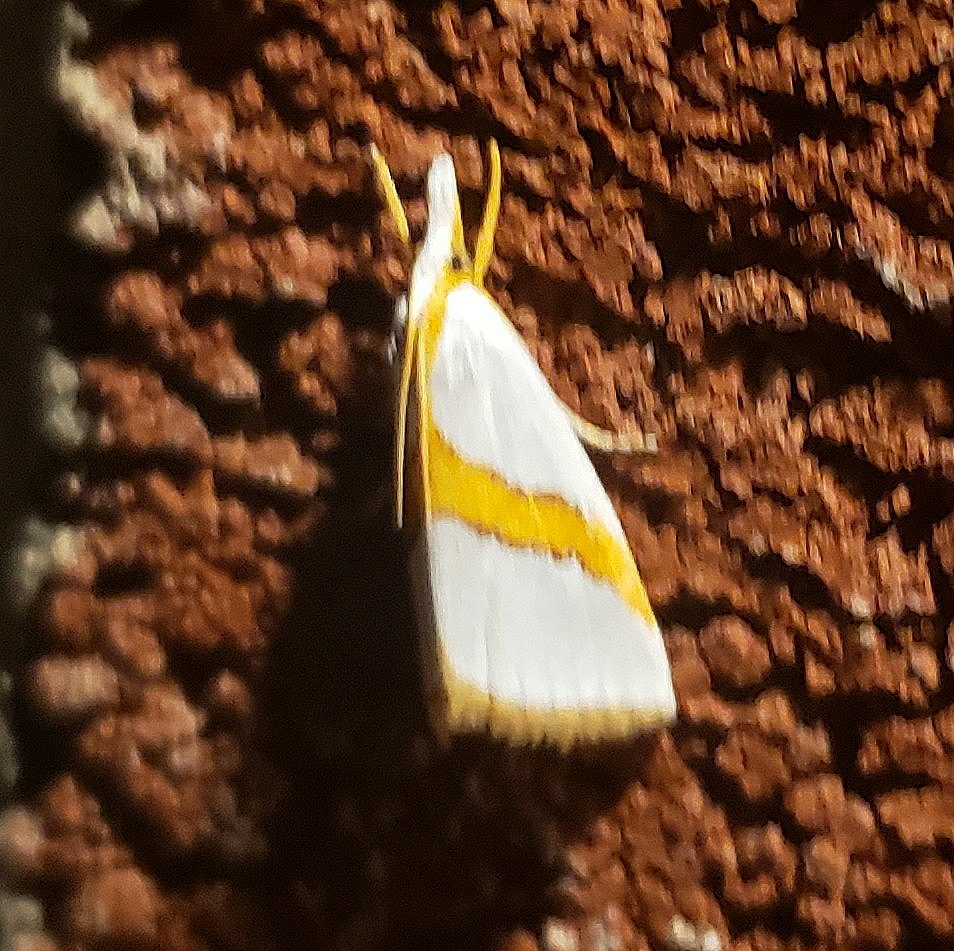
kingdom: Animalia
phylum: Arthropoda
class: Insecta
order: Lepidoptera
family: Crambidae
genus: Vaxi
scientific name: Vaxi critica
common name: Straight-lined vaxi moth
